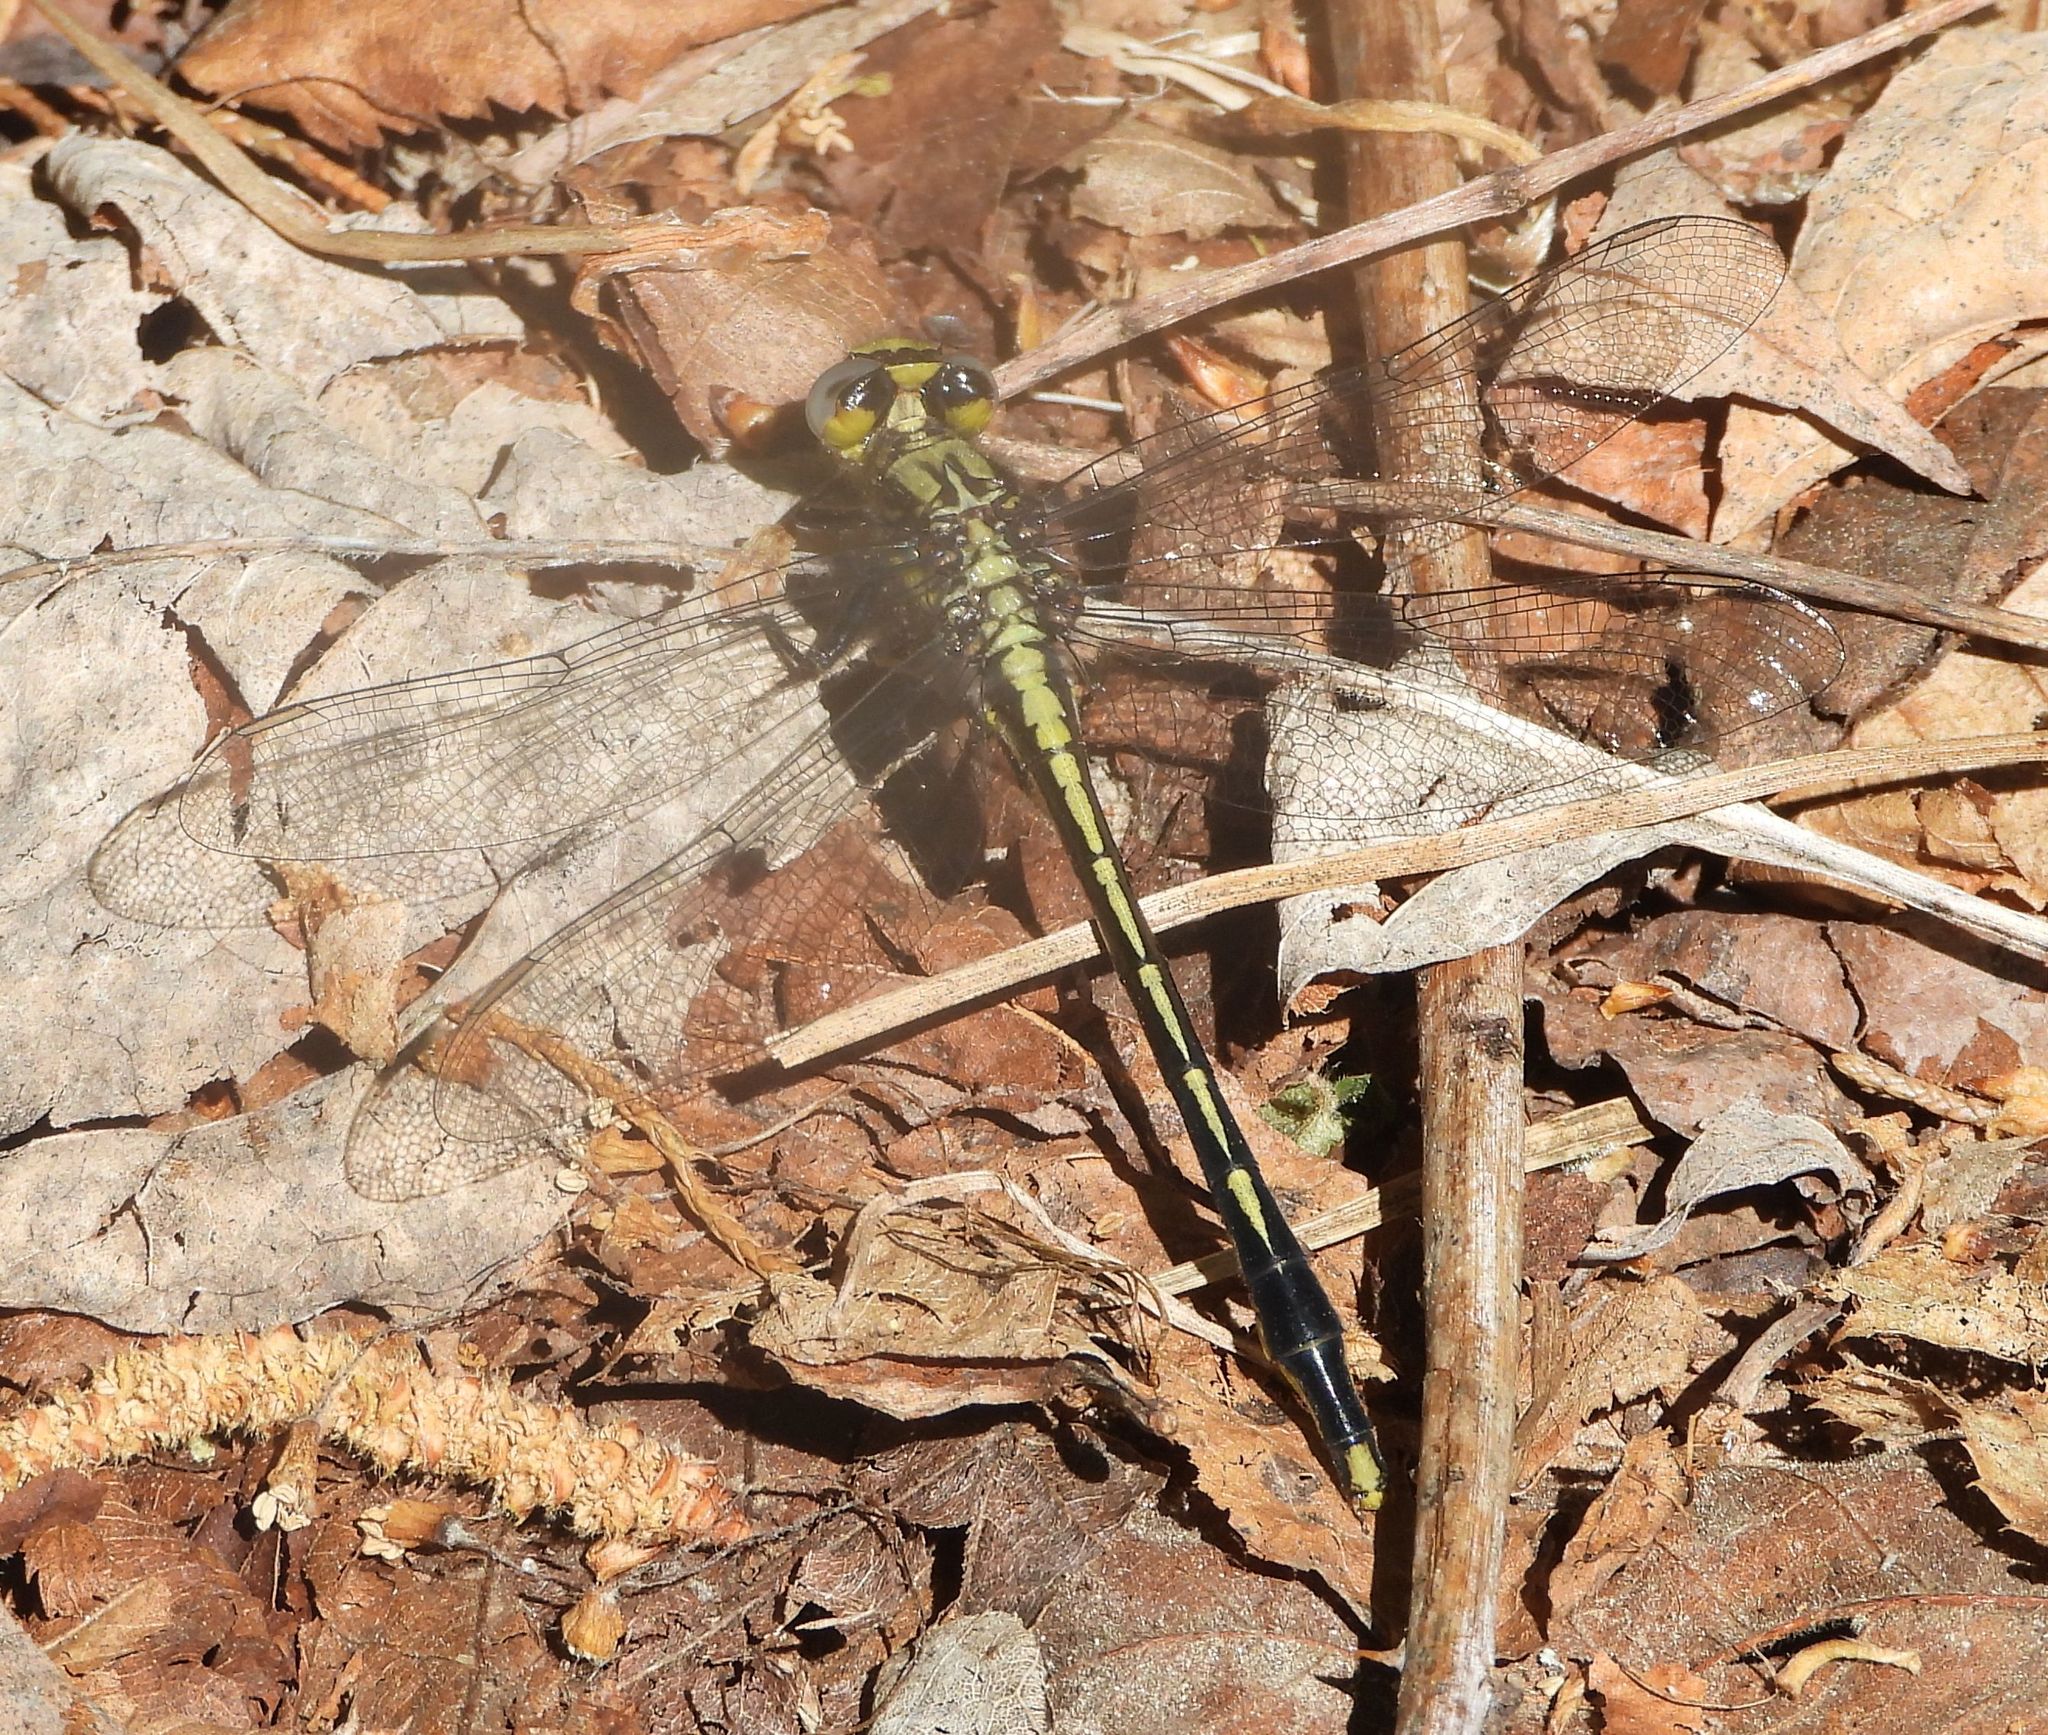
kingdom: Animalia
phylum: Arthropoda
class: Insecta
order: Odonata
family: Gomphidae
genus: Arigomphus
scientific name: Arigomphus furcifer
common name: Lilypad clubtail
